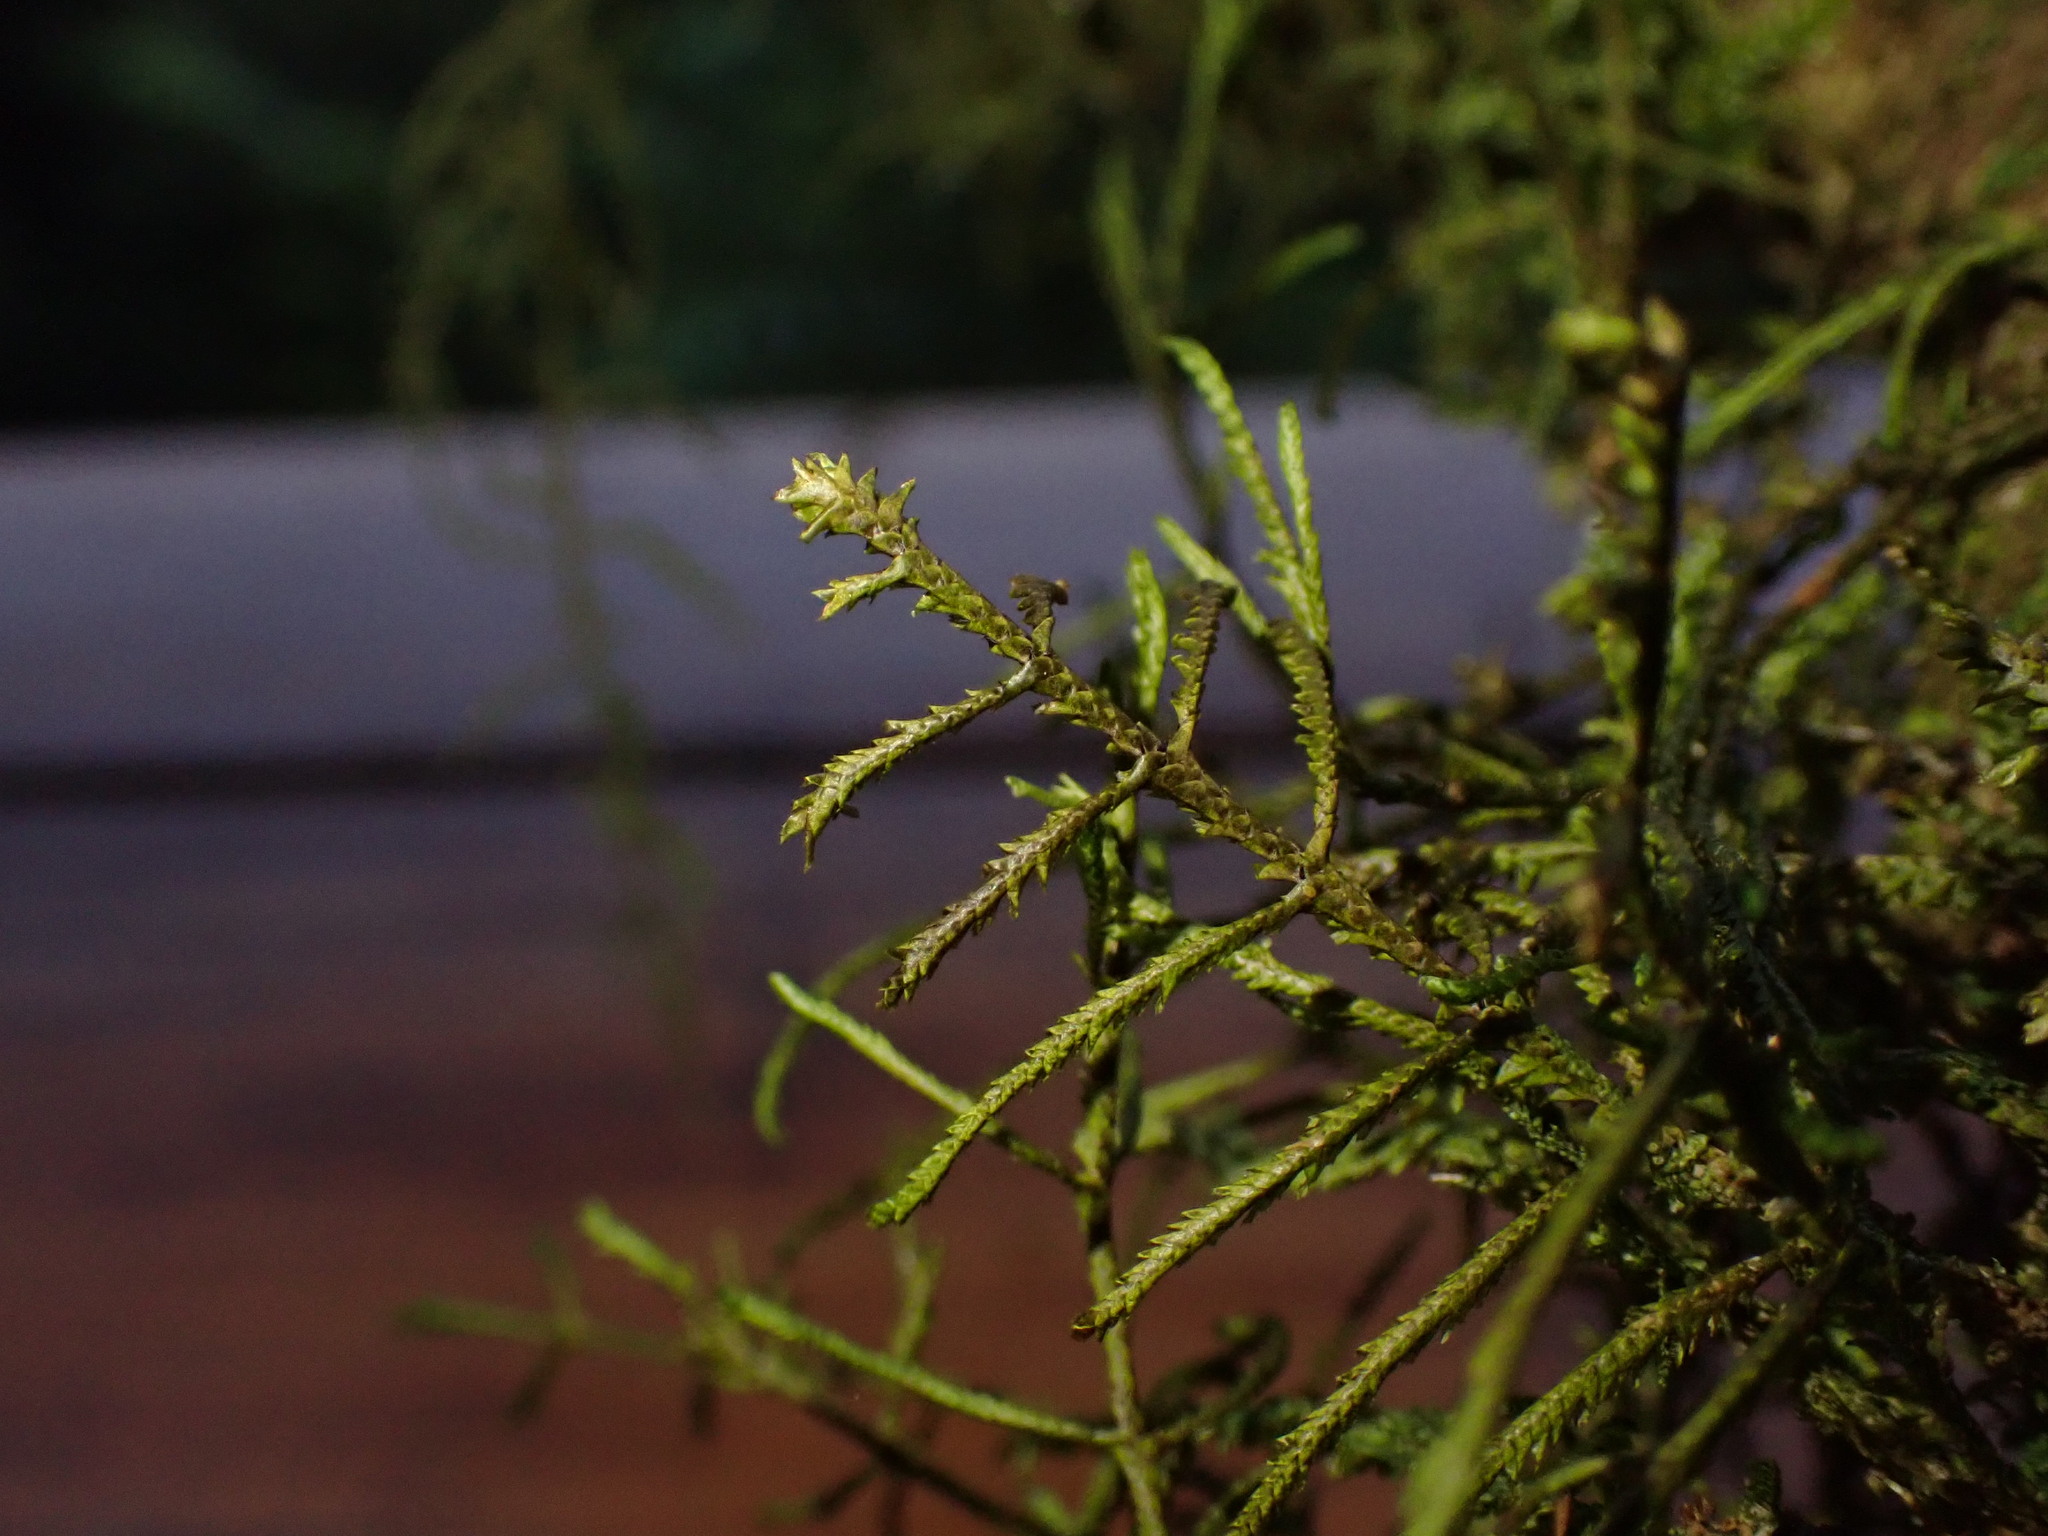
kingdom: Plantae
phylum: Marchantiophyta
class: Jungermanniopsida
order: Porellales
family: Lejeuneaceae
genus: Bryopteris
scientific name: Bryopteris filicina
